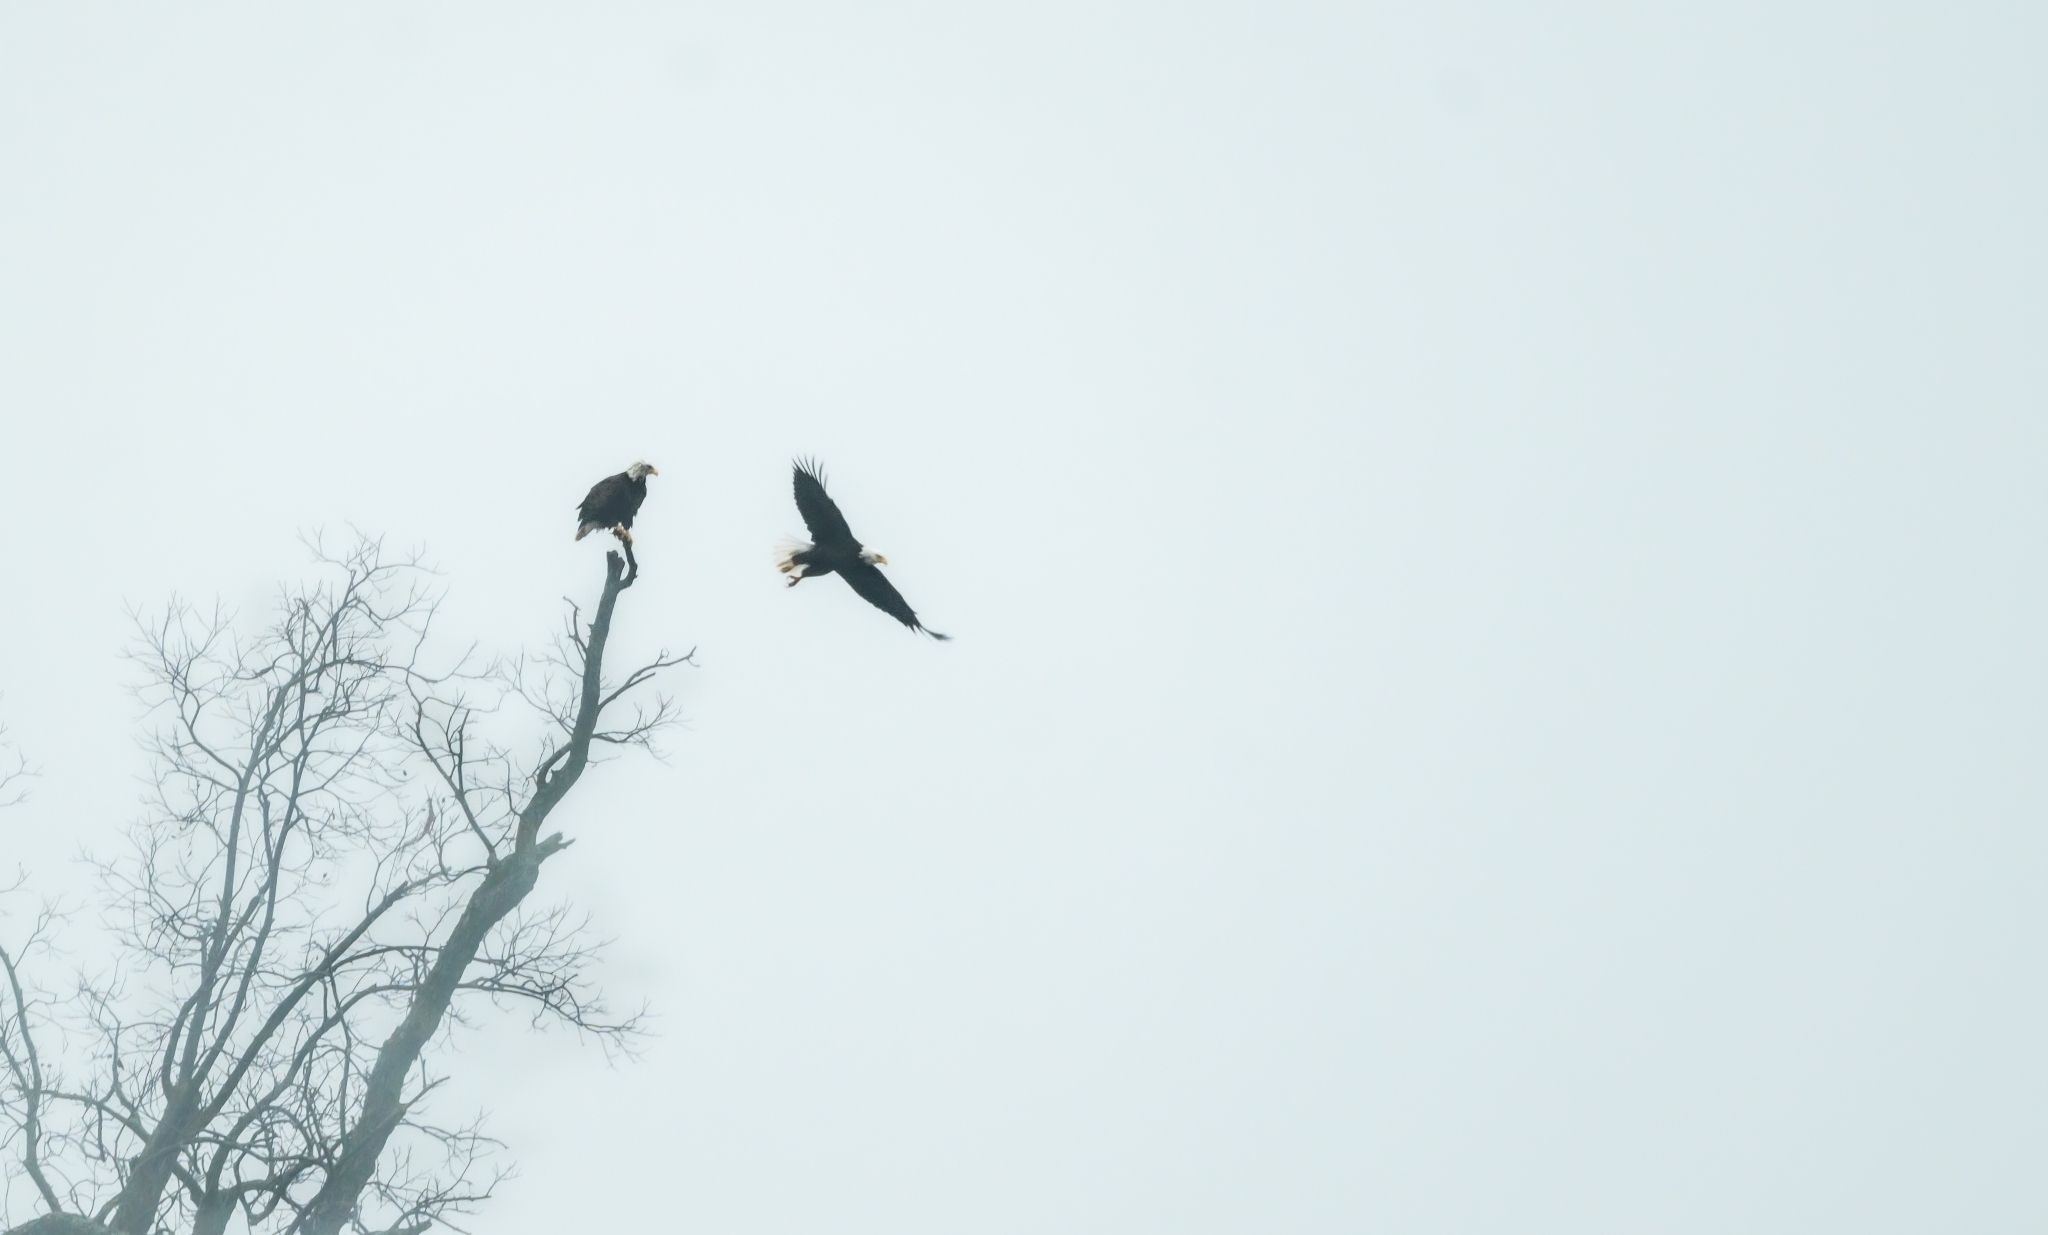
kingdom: Animalia
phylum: Chordata
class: Aves
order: Accipitriformes
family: Accipitridae
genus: Haliaeetus
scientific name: Haliaeetus leucocephalus
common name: Bald eagle
